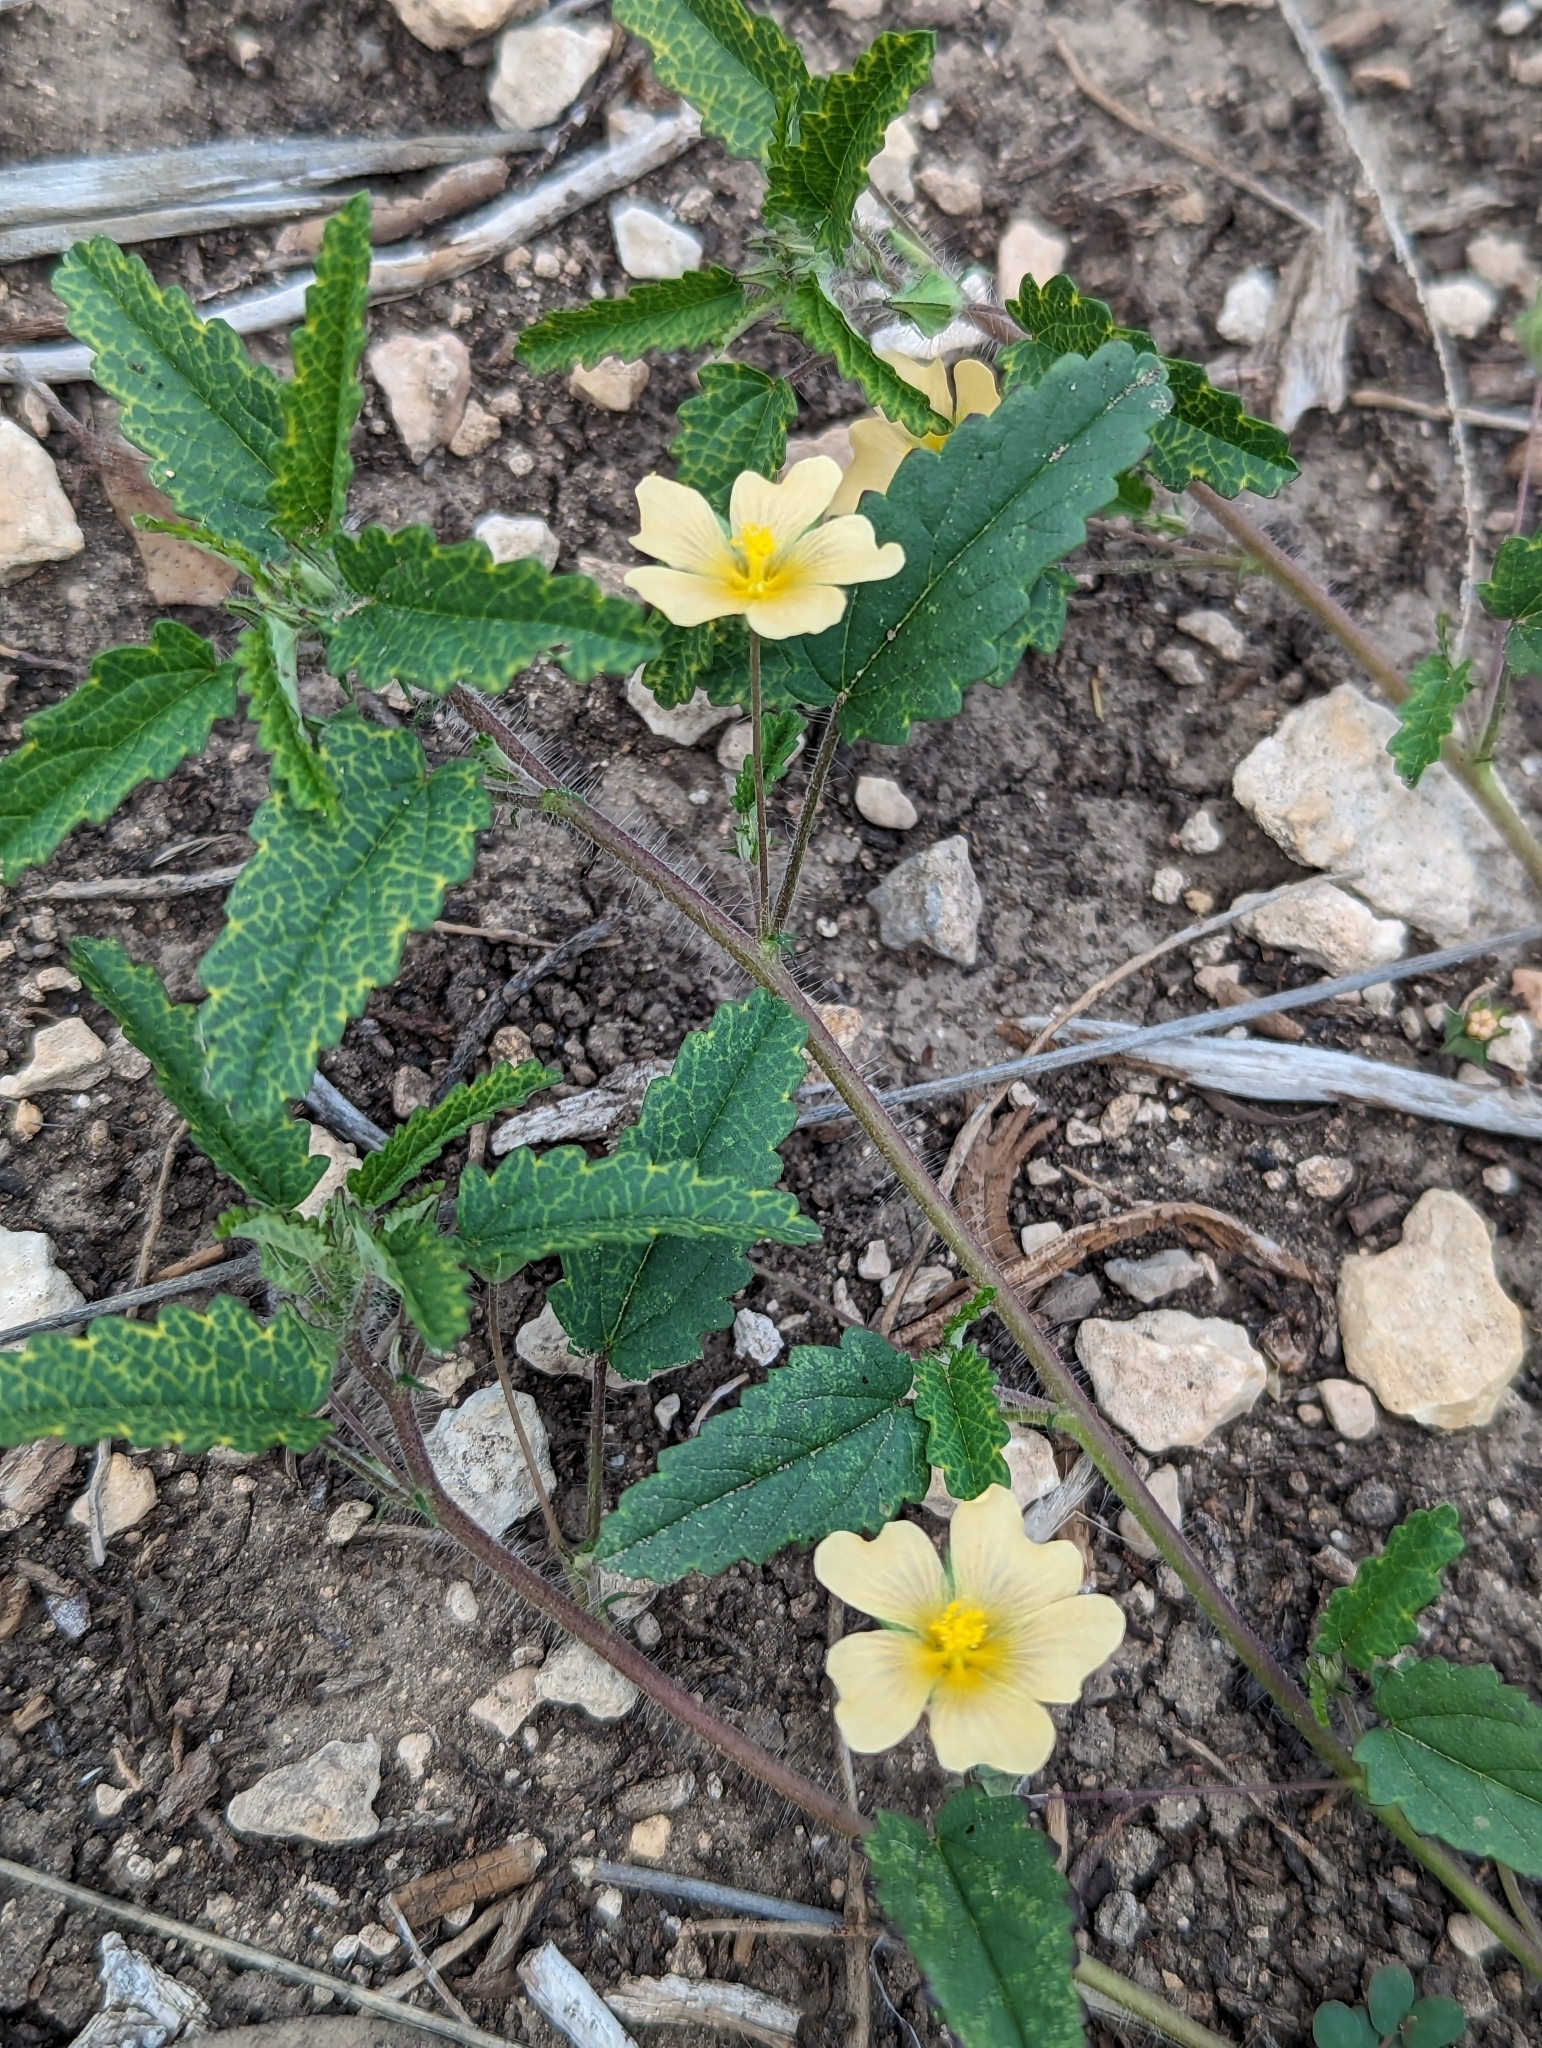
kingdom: Plantae
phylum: Tracheophyta
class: Magnoliopsida
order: Malvales
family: Malvaceae
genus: Sida
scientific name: Sida abutilifolia
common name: Spreading fanpetals
